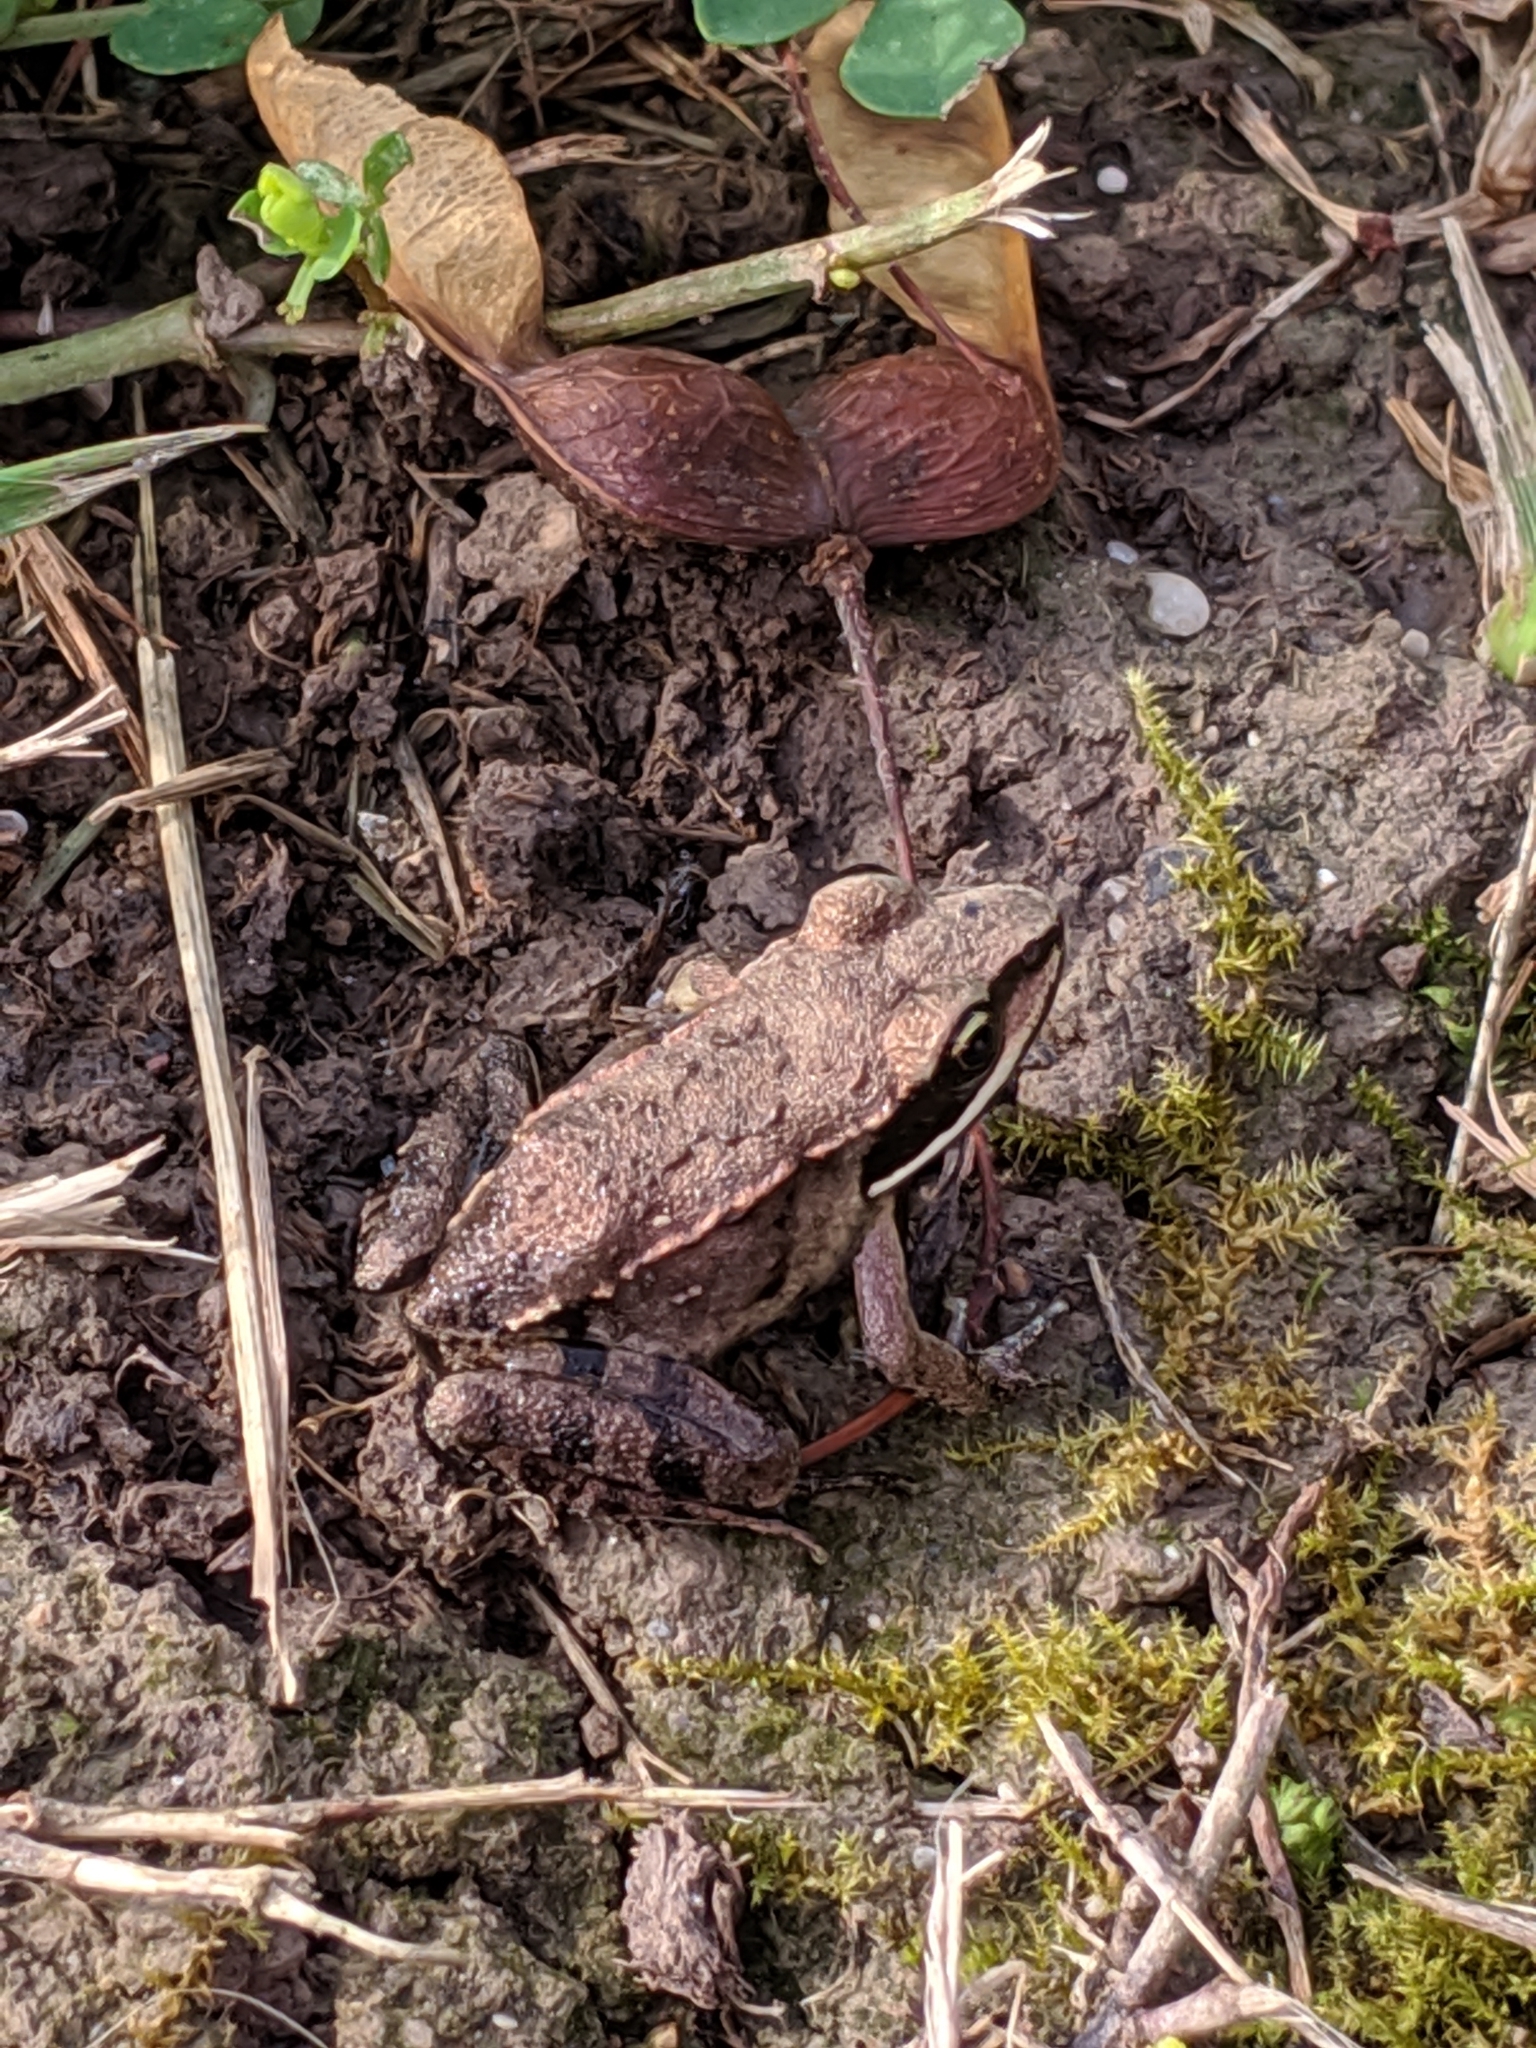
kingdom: Animalia
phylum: Chordata
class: Amphibia
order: Anura
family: Ranidae
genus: Lithobates
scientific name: Lithobates sylvaticus
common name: Wood frog
